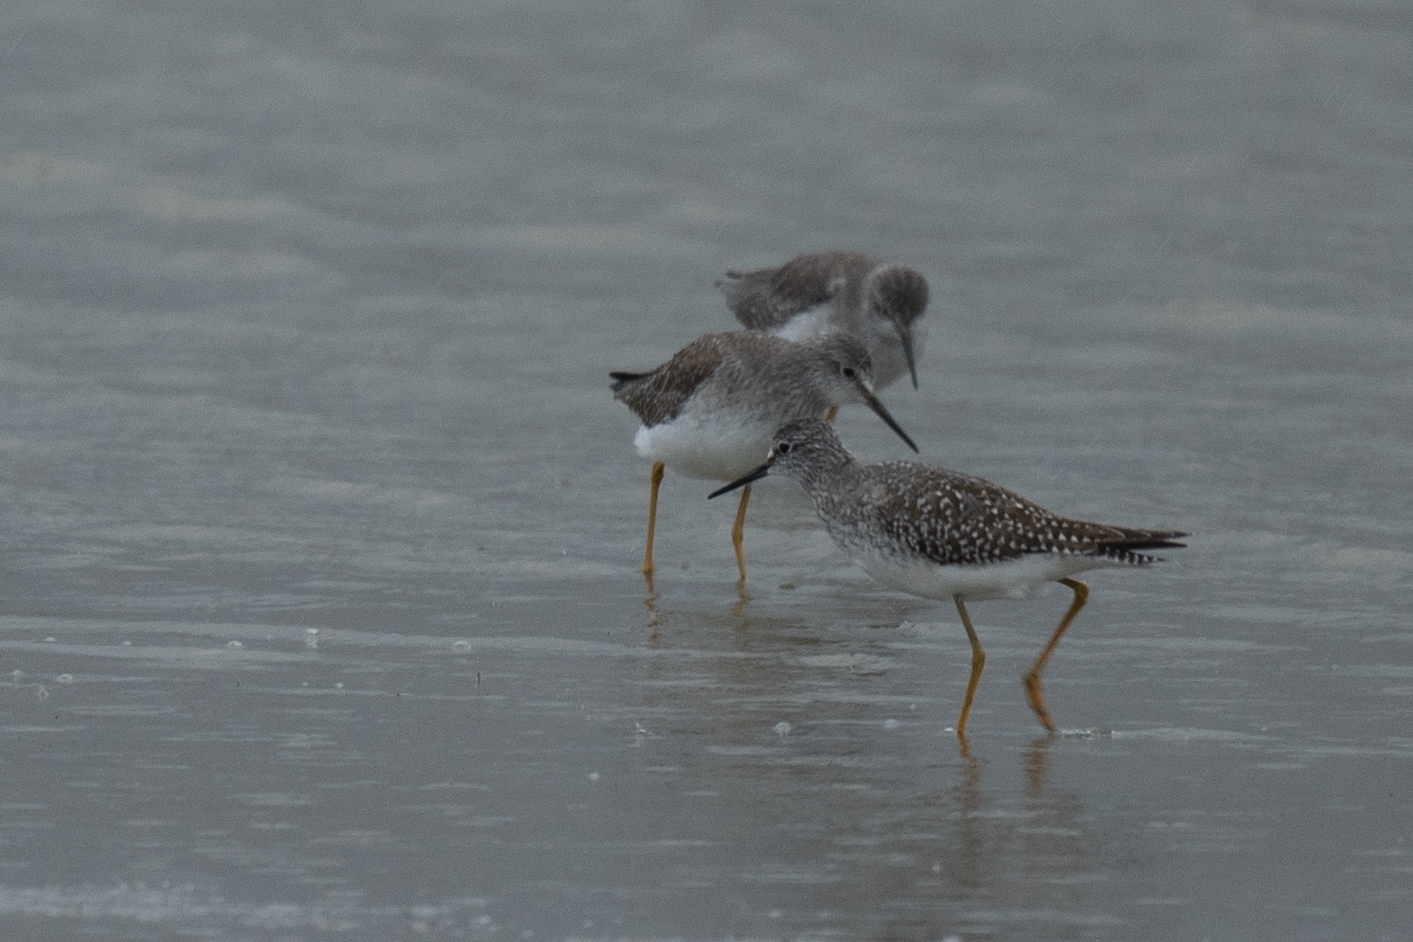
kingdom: Animalia
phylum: Chordata
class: Aves
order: Charadriiformes
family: Scolopacidae
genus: Tringa
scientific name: Tringa flavipes
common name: Lesser yellowlegs
